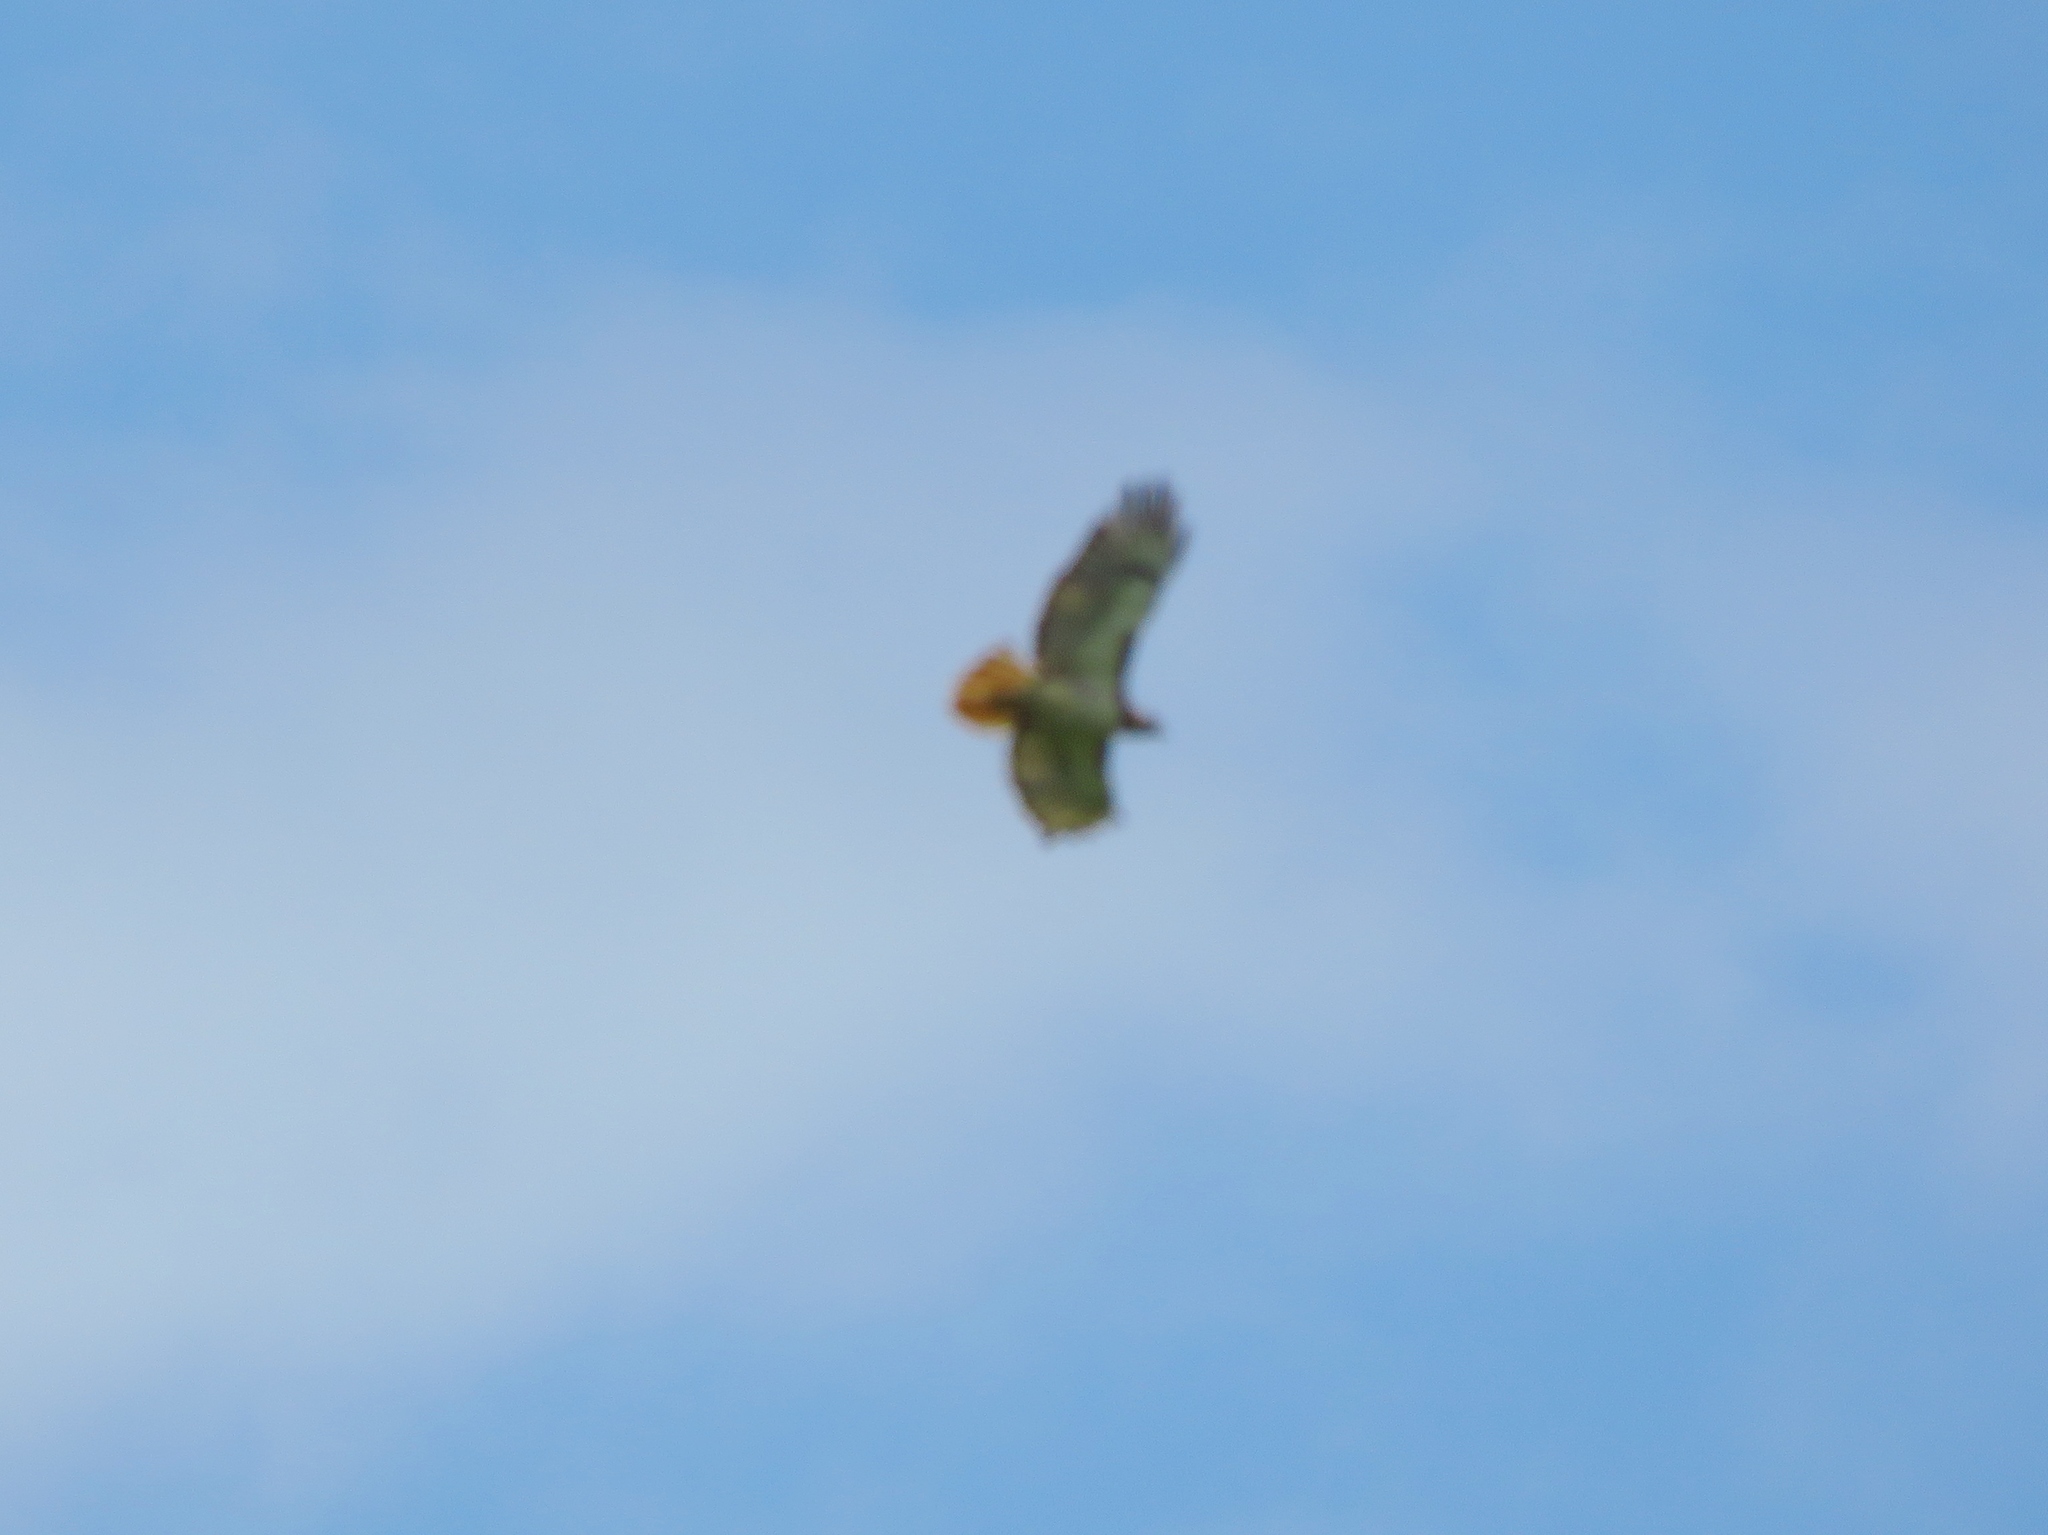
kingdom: Animalia
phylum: Chordata
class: Aves
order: Accipitriformes
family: Accipitridae
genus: Buteo
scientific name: Buteo jamaicensis
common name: Red-tailed hawk
